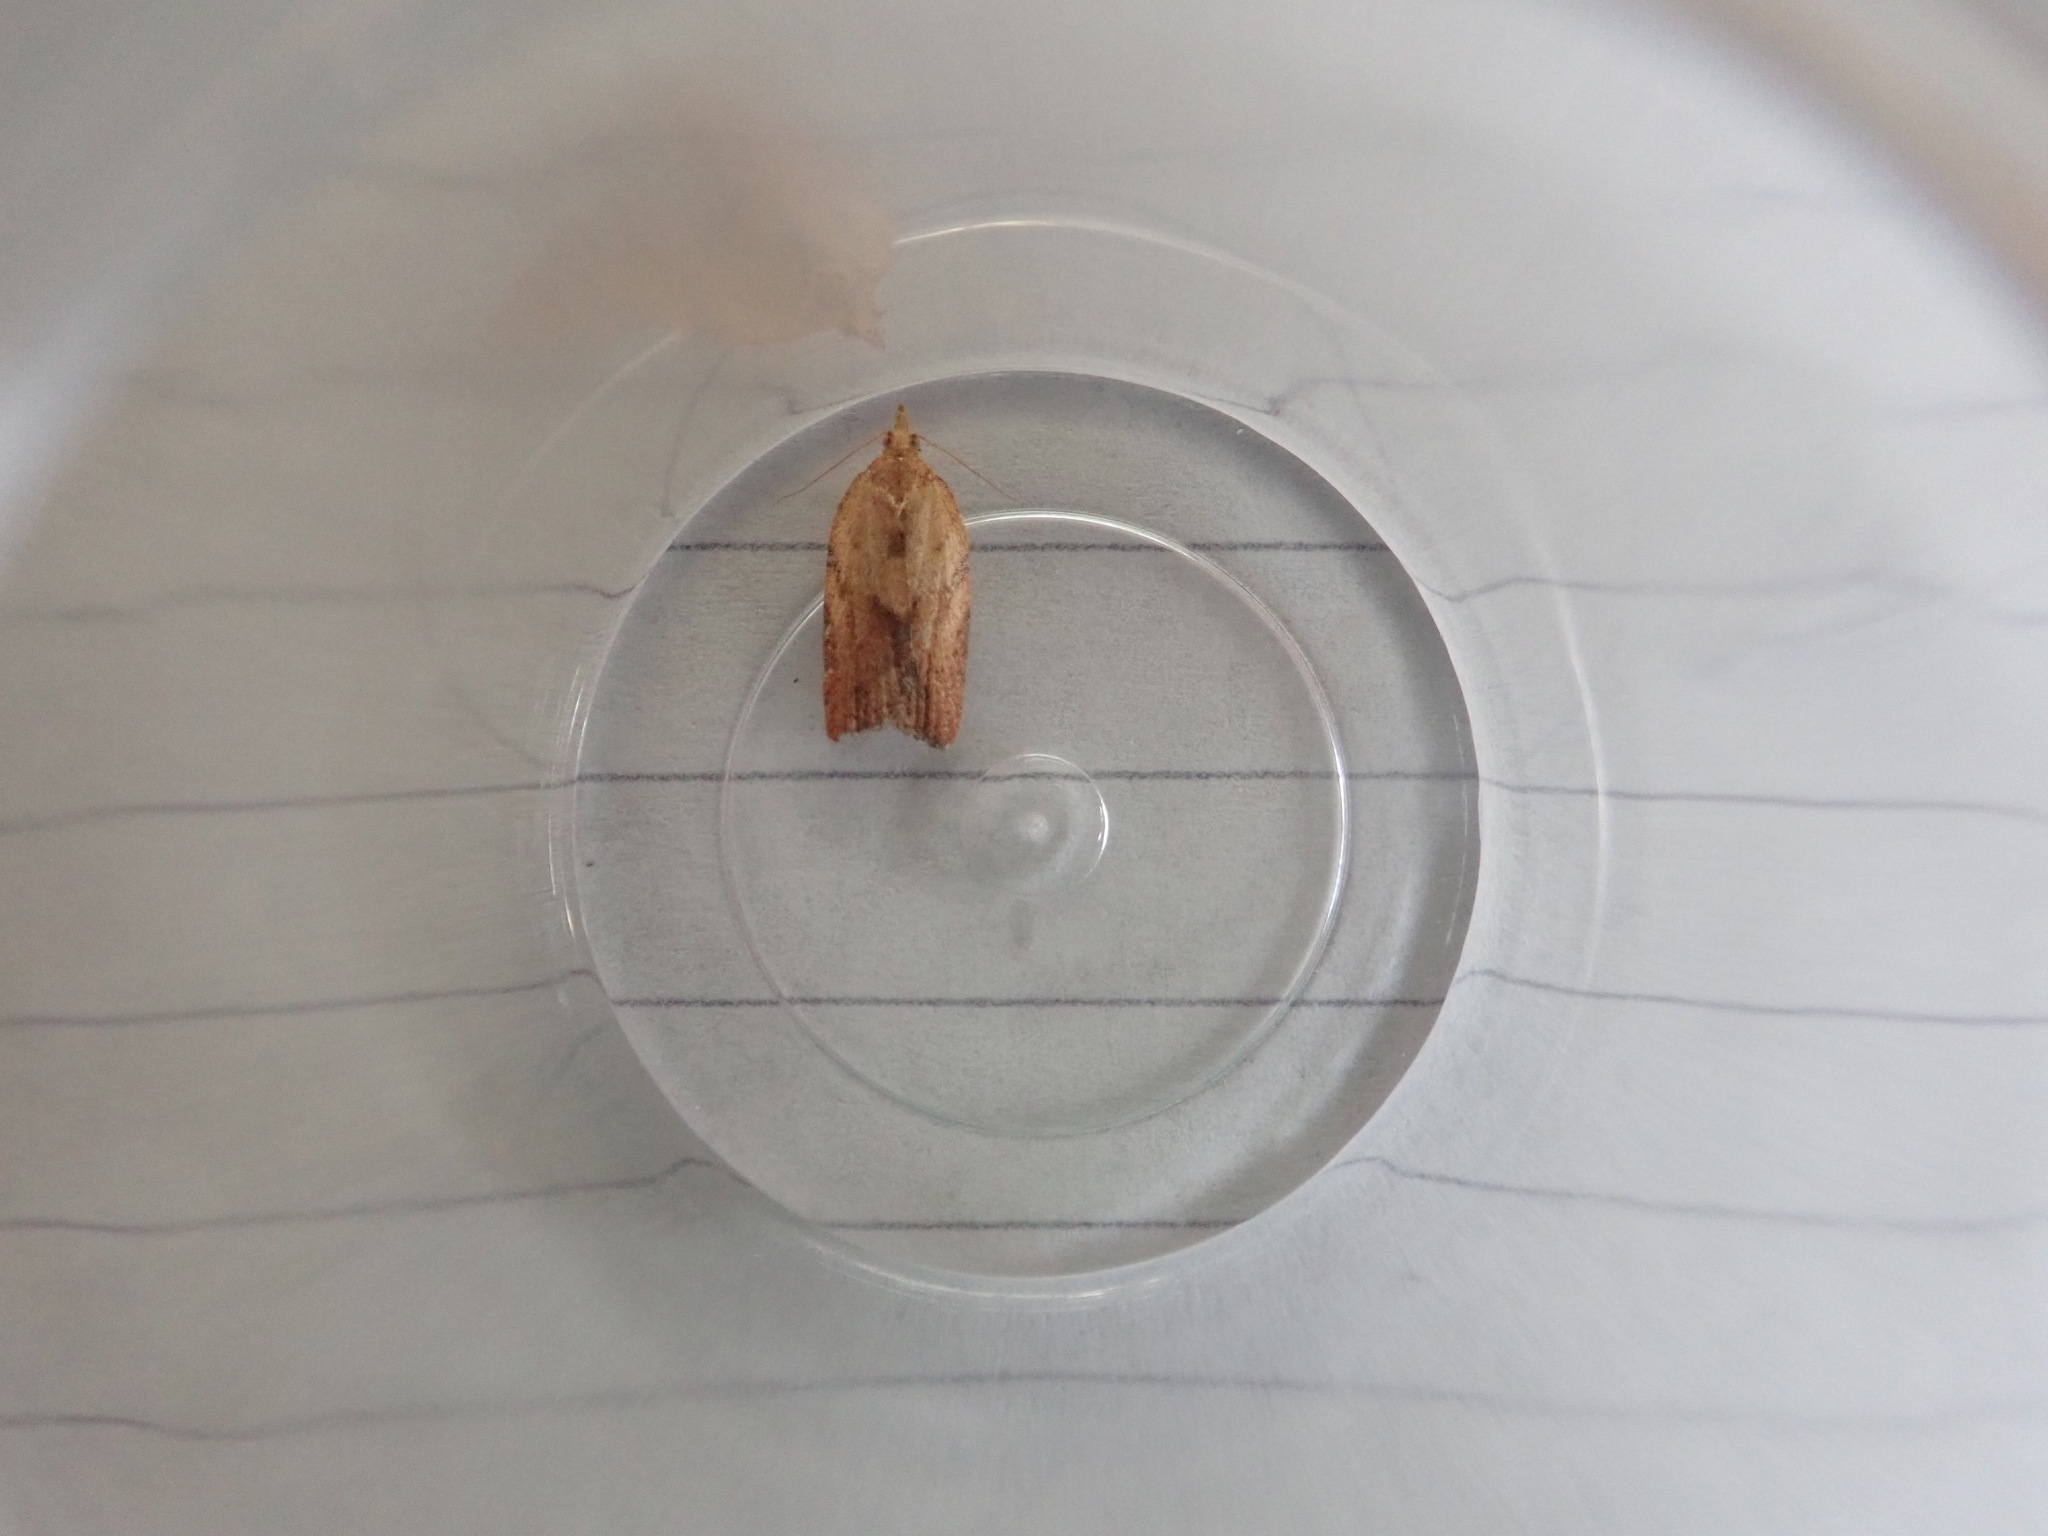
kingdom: Animalia
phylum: Arthropoda
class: Insecta
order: Lepidoptera
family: Tortricidae
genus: Epiphyas
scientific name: Epiphyas postvittana
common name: Light brown apple moth
